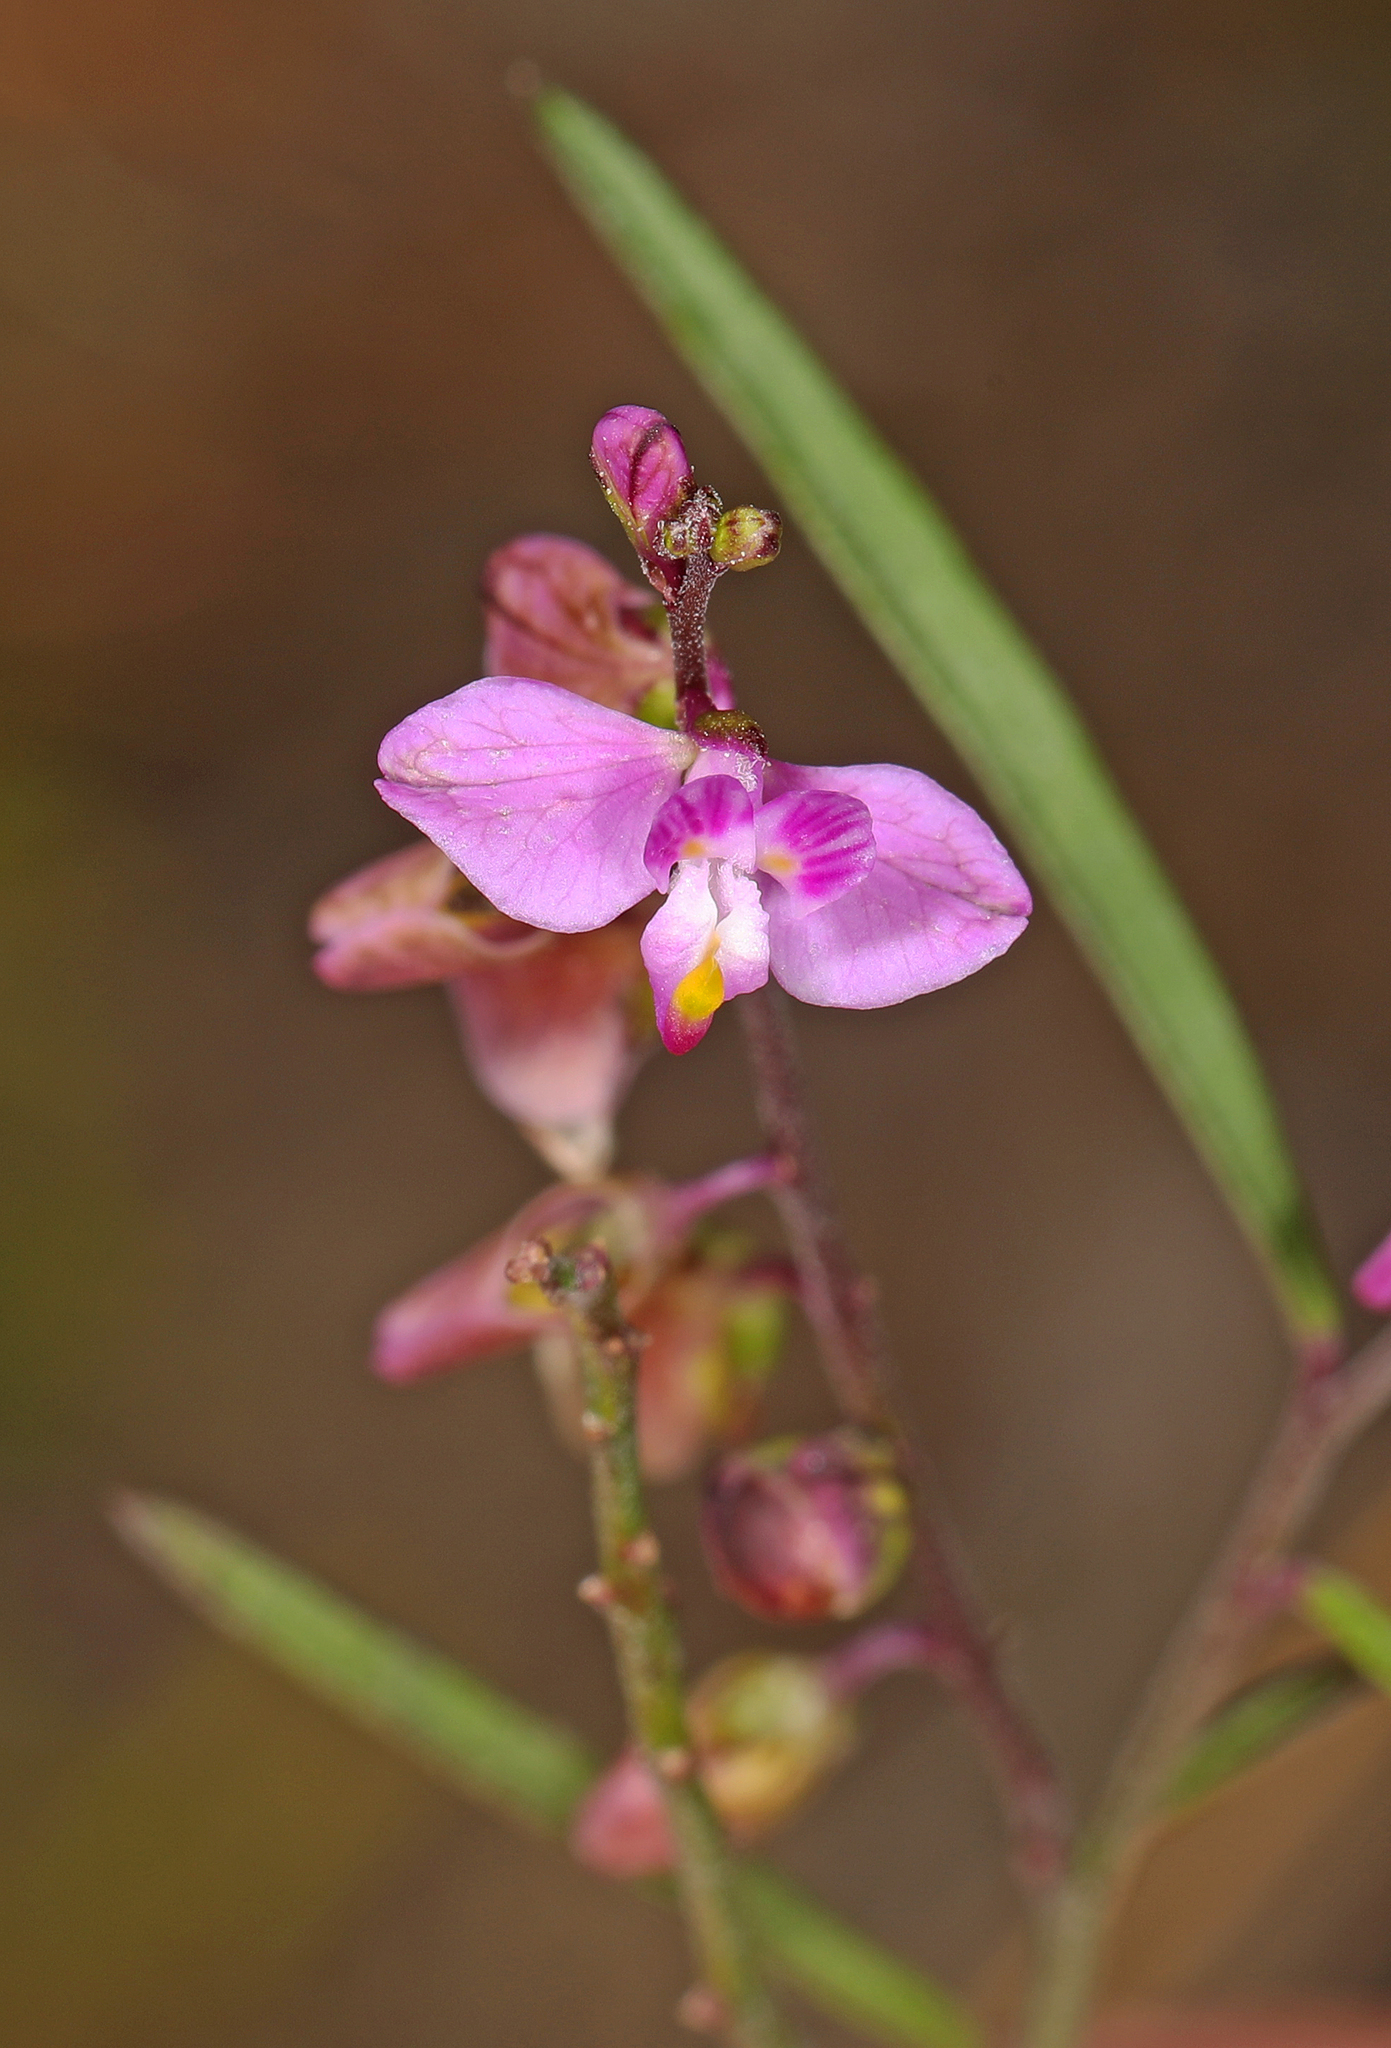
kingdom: Plantae
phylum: Tracheophyta
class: Magnoliopsida
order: Fabales
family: Polygalaceae
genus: Asemeia
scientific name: Asemeia grandiflora
